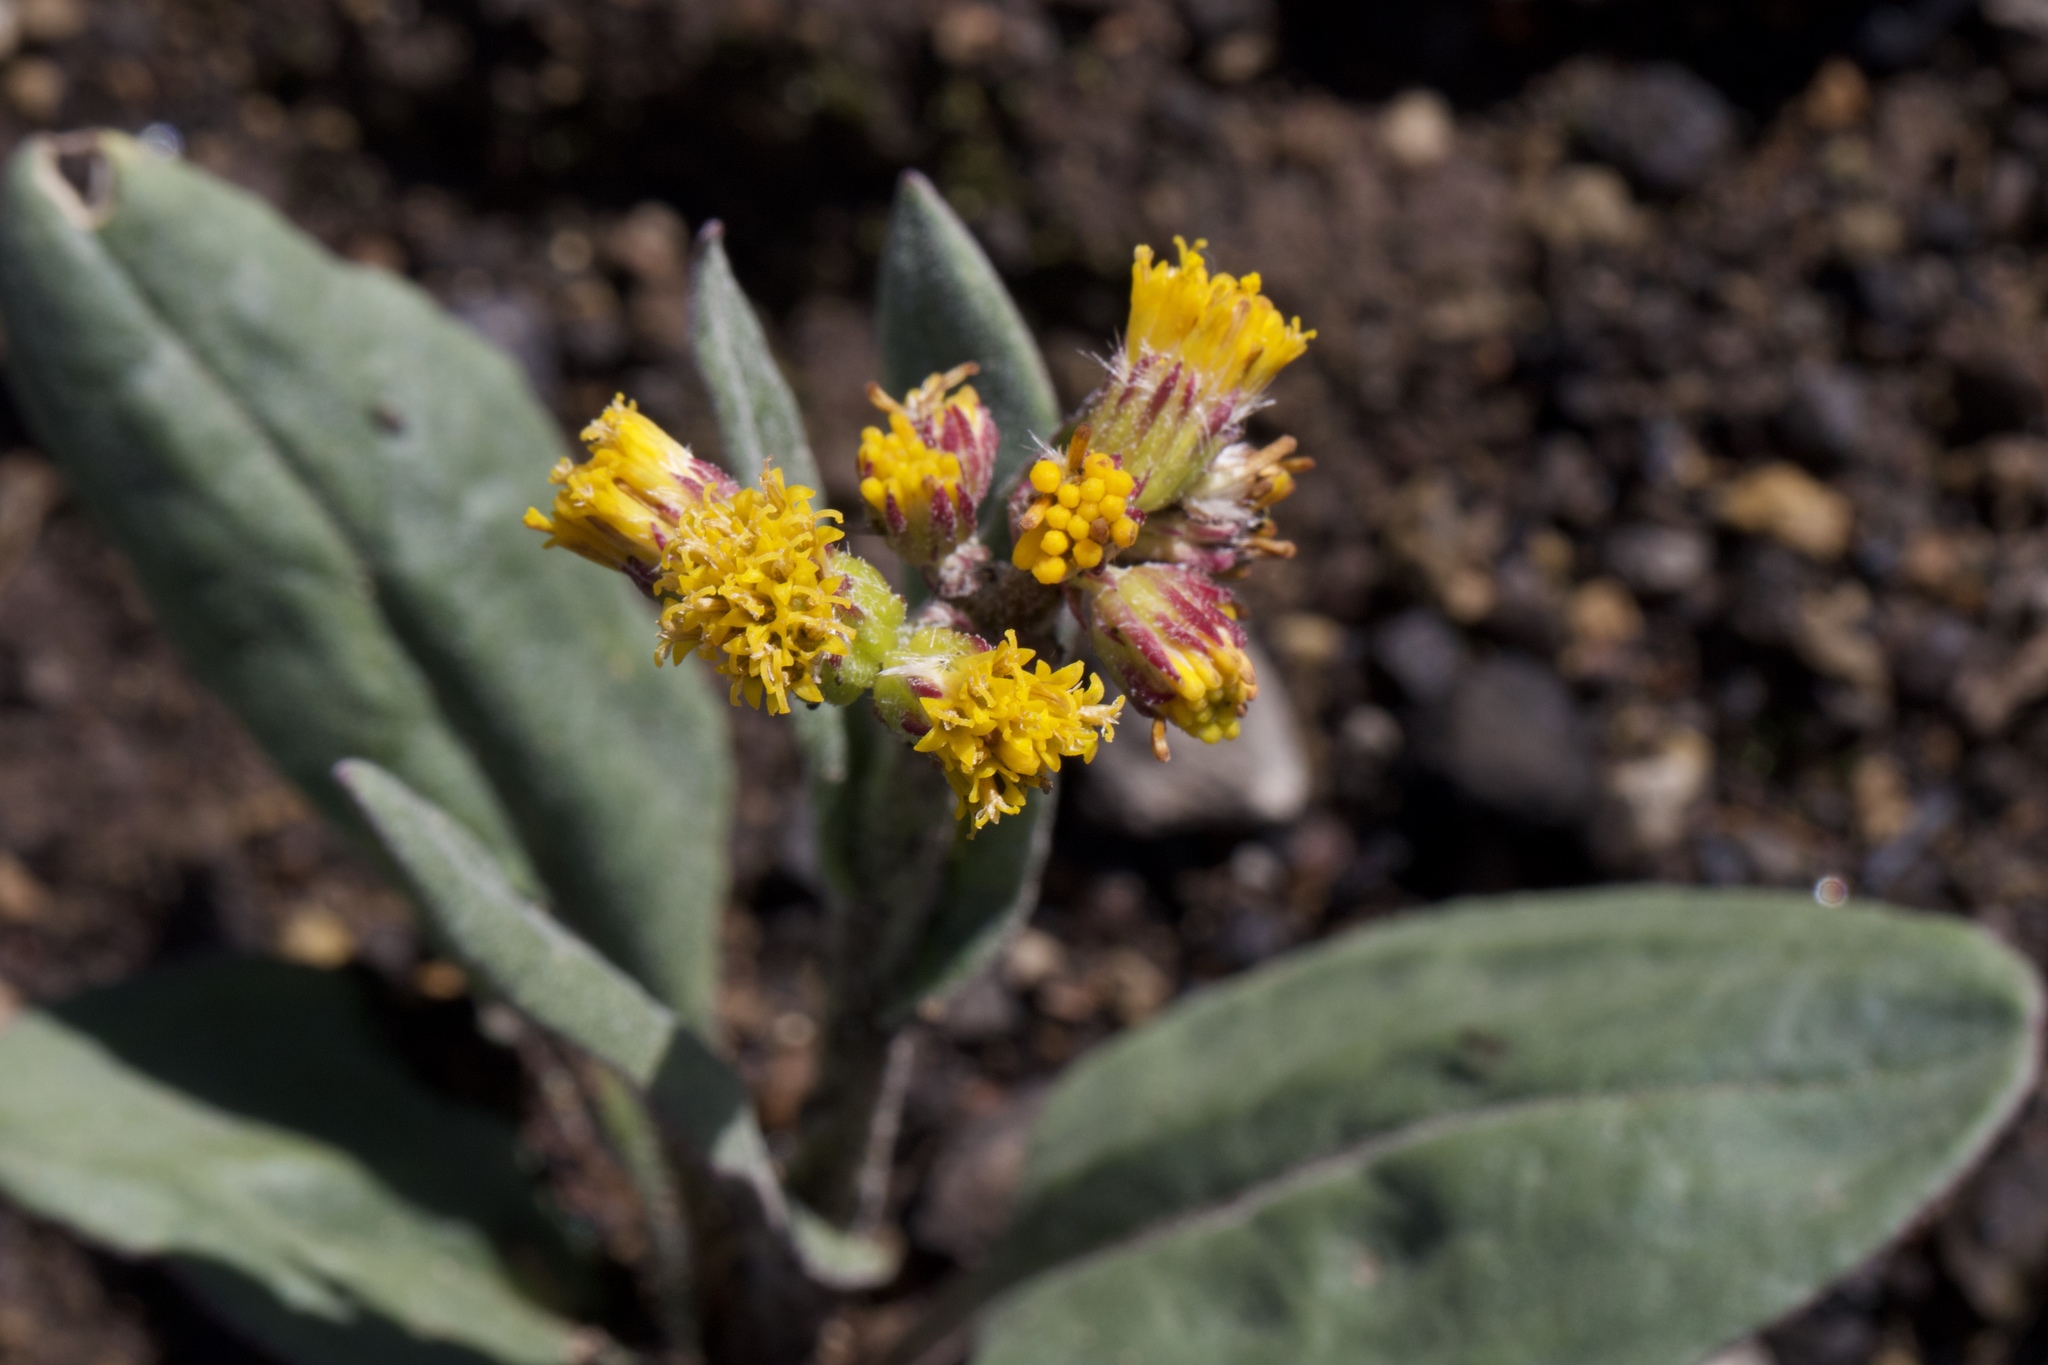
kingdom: Plantae
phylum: Tracheophyta
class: Magnoliopsida
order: Asterales
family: Asteraceae
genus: Senecio
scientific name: Senecio aronicoides
